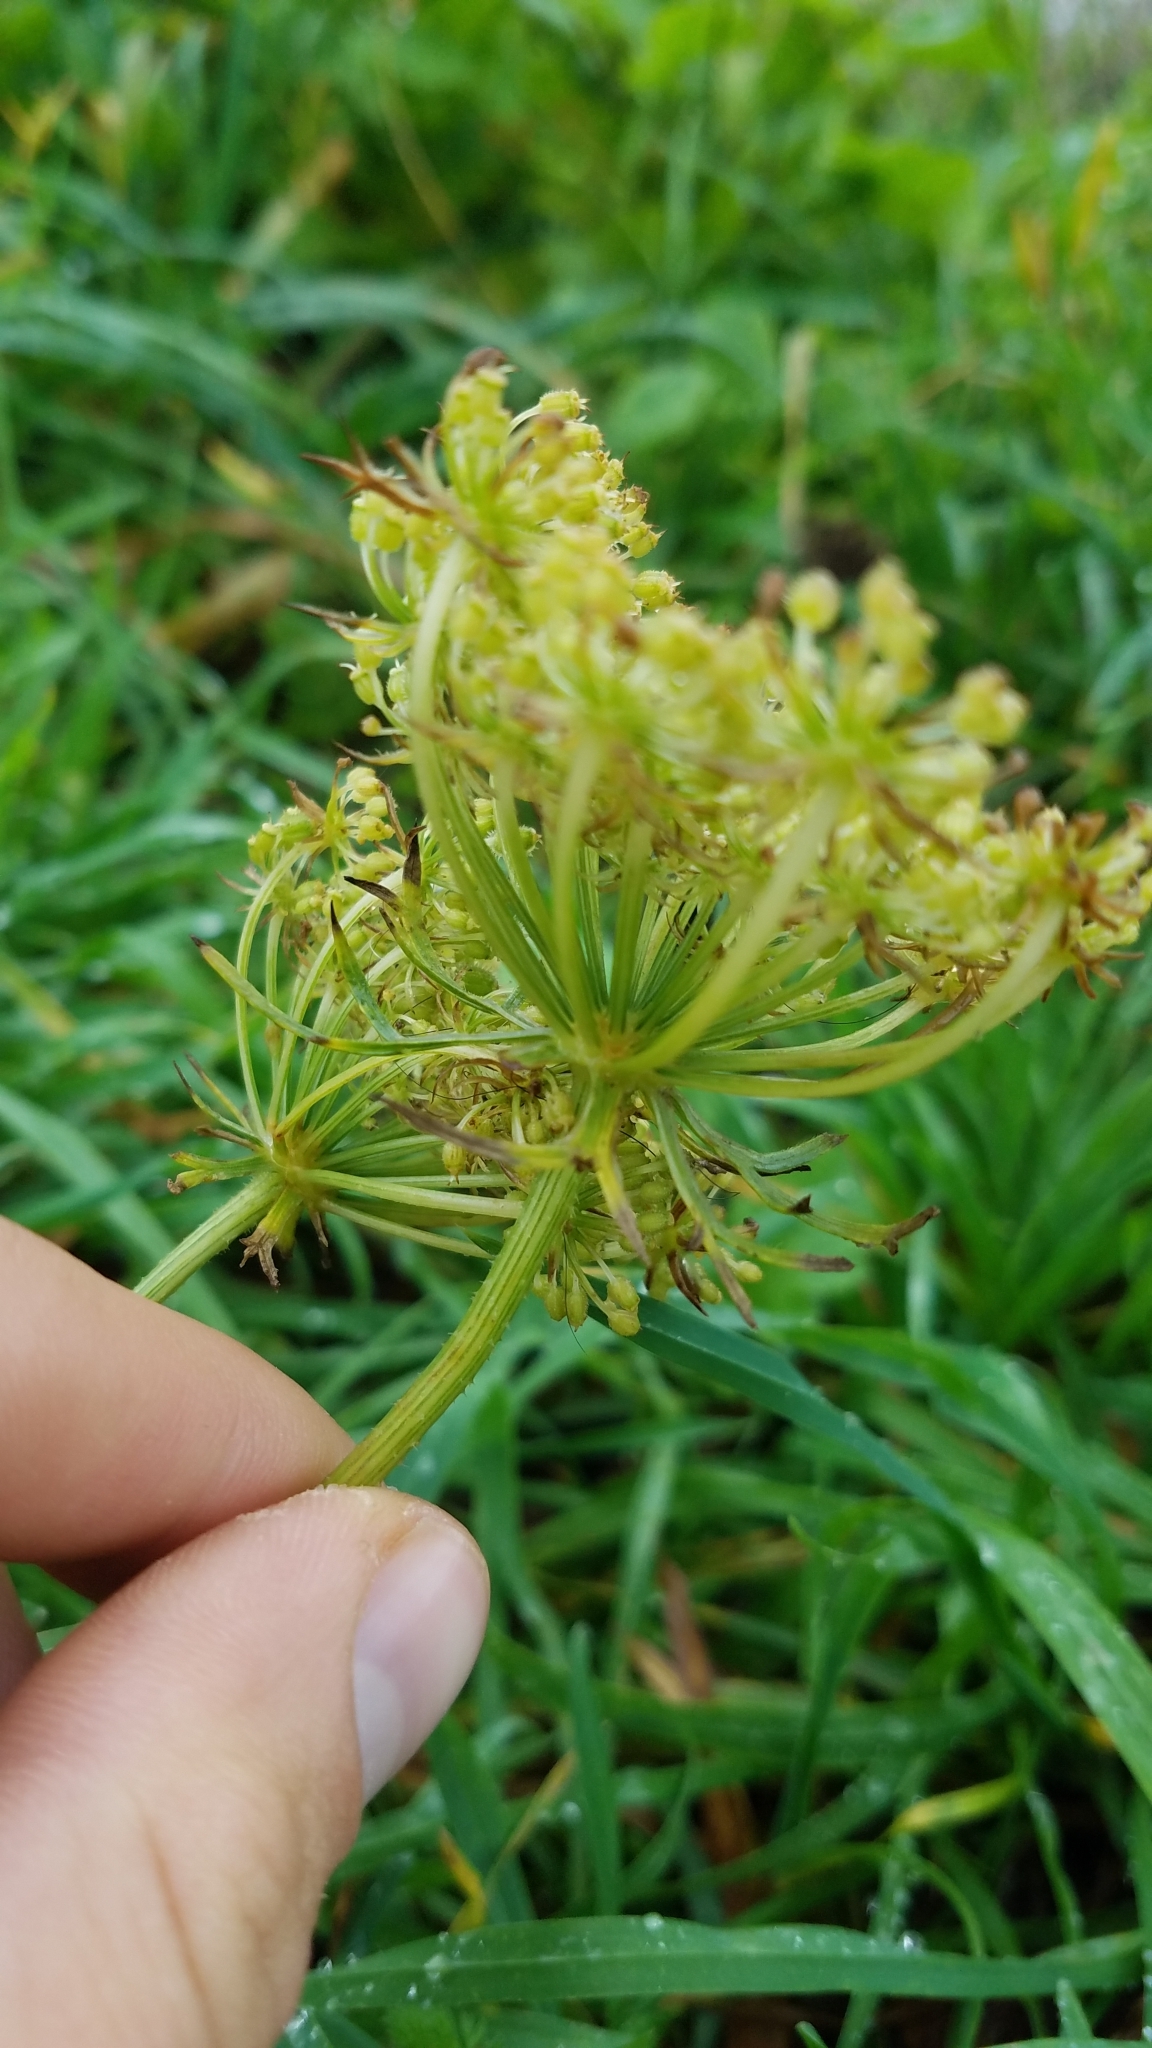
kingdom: Plantae
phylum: Tracheophyta
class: Magnoliopsida
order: Apiales
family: Apiaceae
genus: Daucus
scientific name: Daucus carota
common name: Wild carrot
